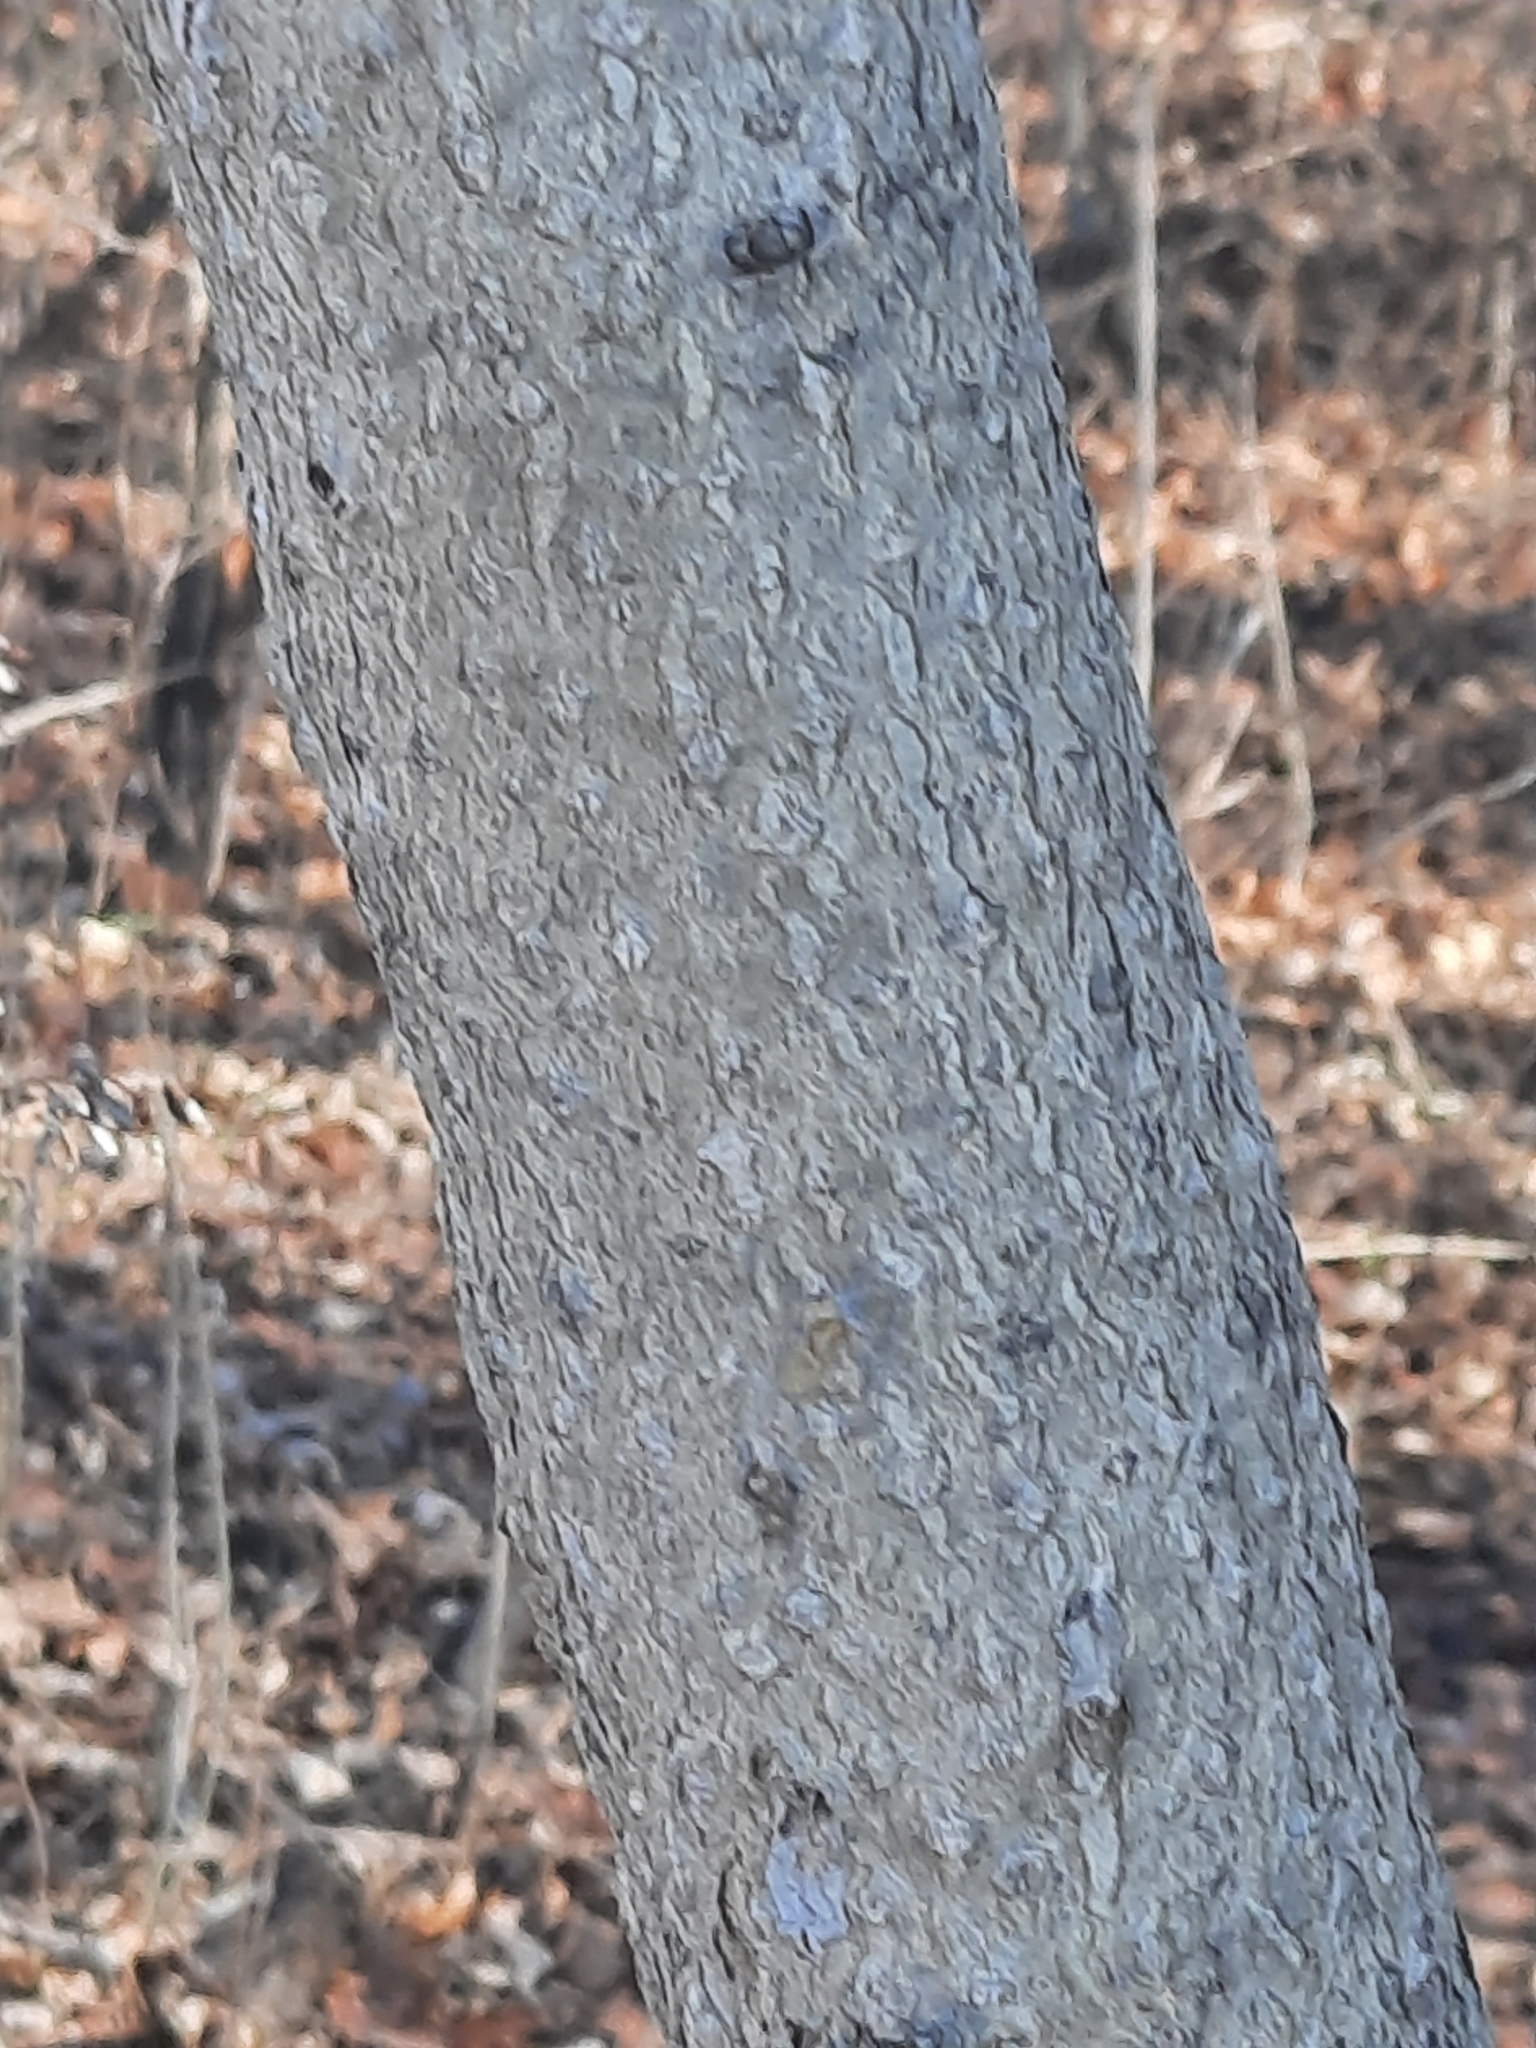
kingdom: Plantae
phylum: Tracheophyta
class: Magnoliopsida
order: Sapindales
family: Simaroubaceae
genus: Ailanthus
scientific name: Ailanthus altissima
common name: Tree-of-heaven
